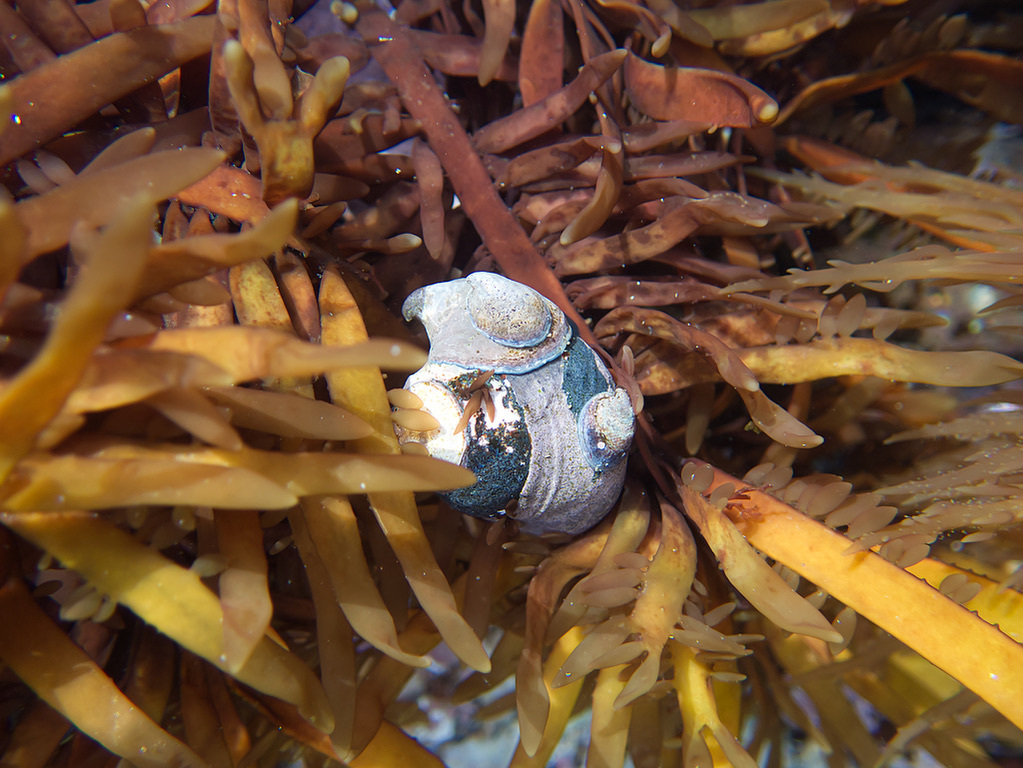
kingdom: Animalia
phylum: Mollusca
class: Gastropoda
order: Trochida
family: Tegulidae
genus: Tegula
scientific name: Tegula funebralis
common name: Black tegula
